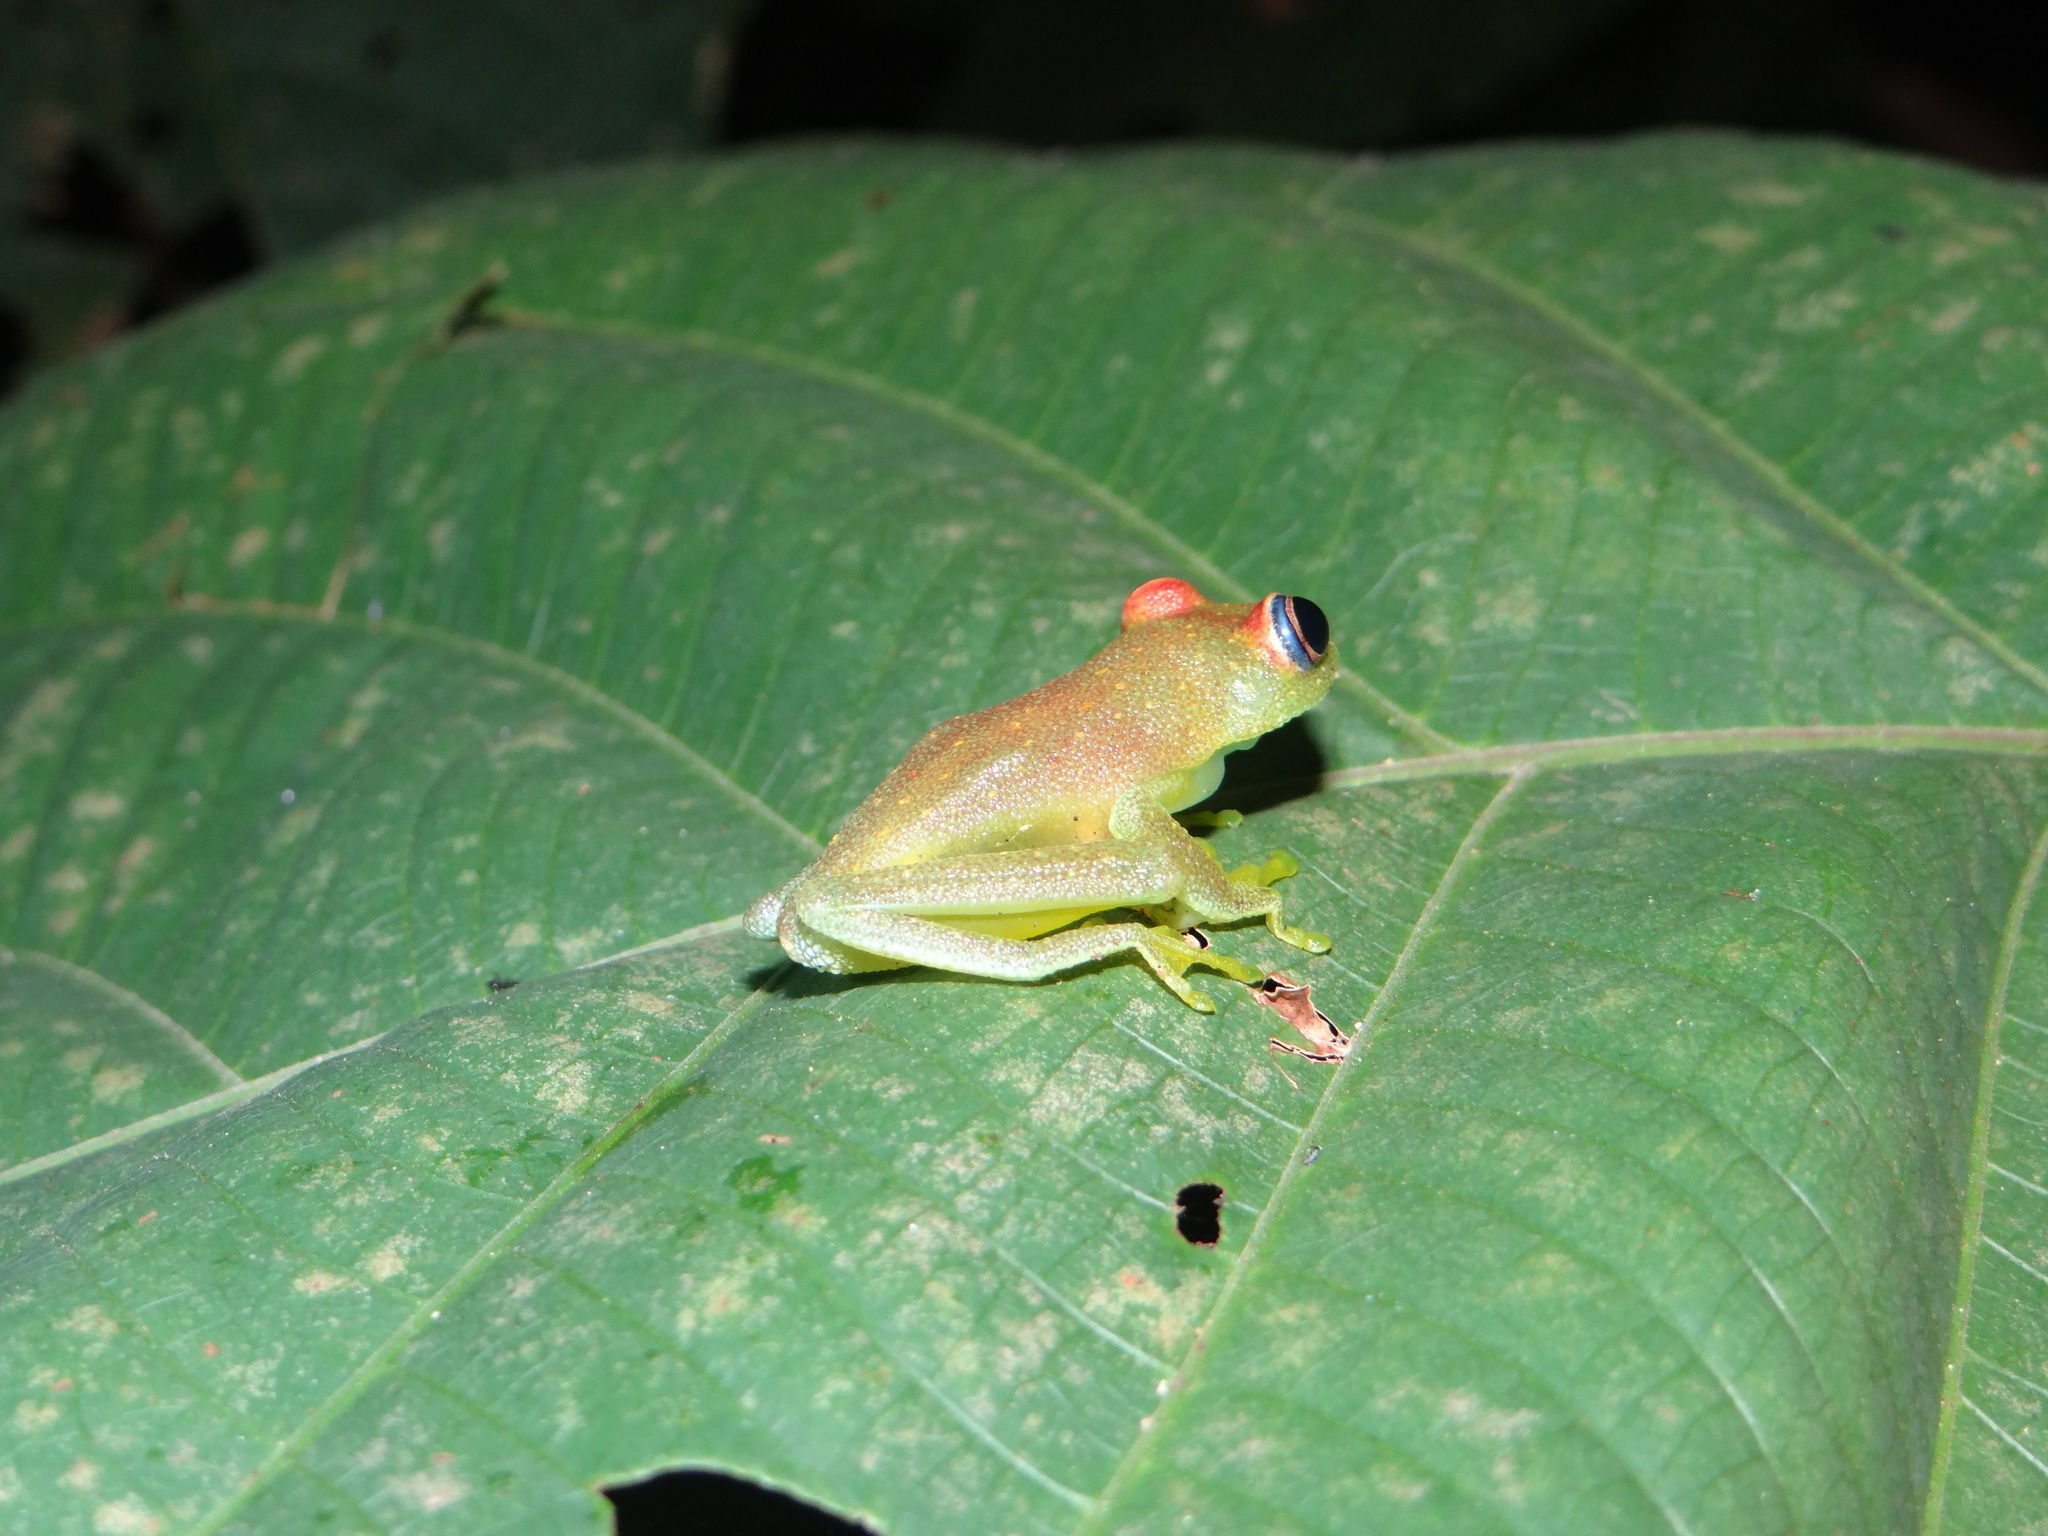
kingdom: Animalia
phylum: Chordata
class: Amphibia
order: Anura
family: Hylidae
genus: Boana
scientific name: Boana cinerascens
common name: Demerara falls treefrog
